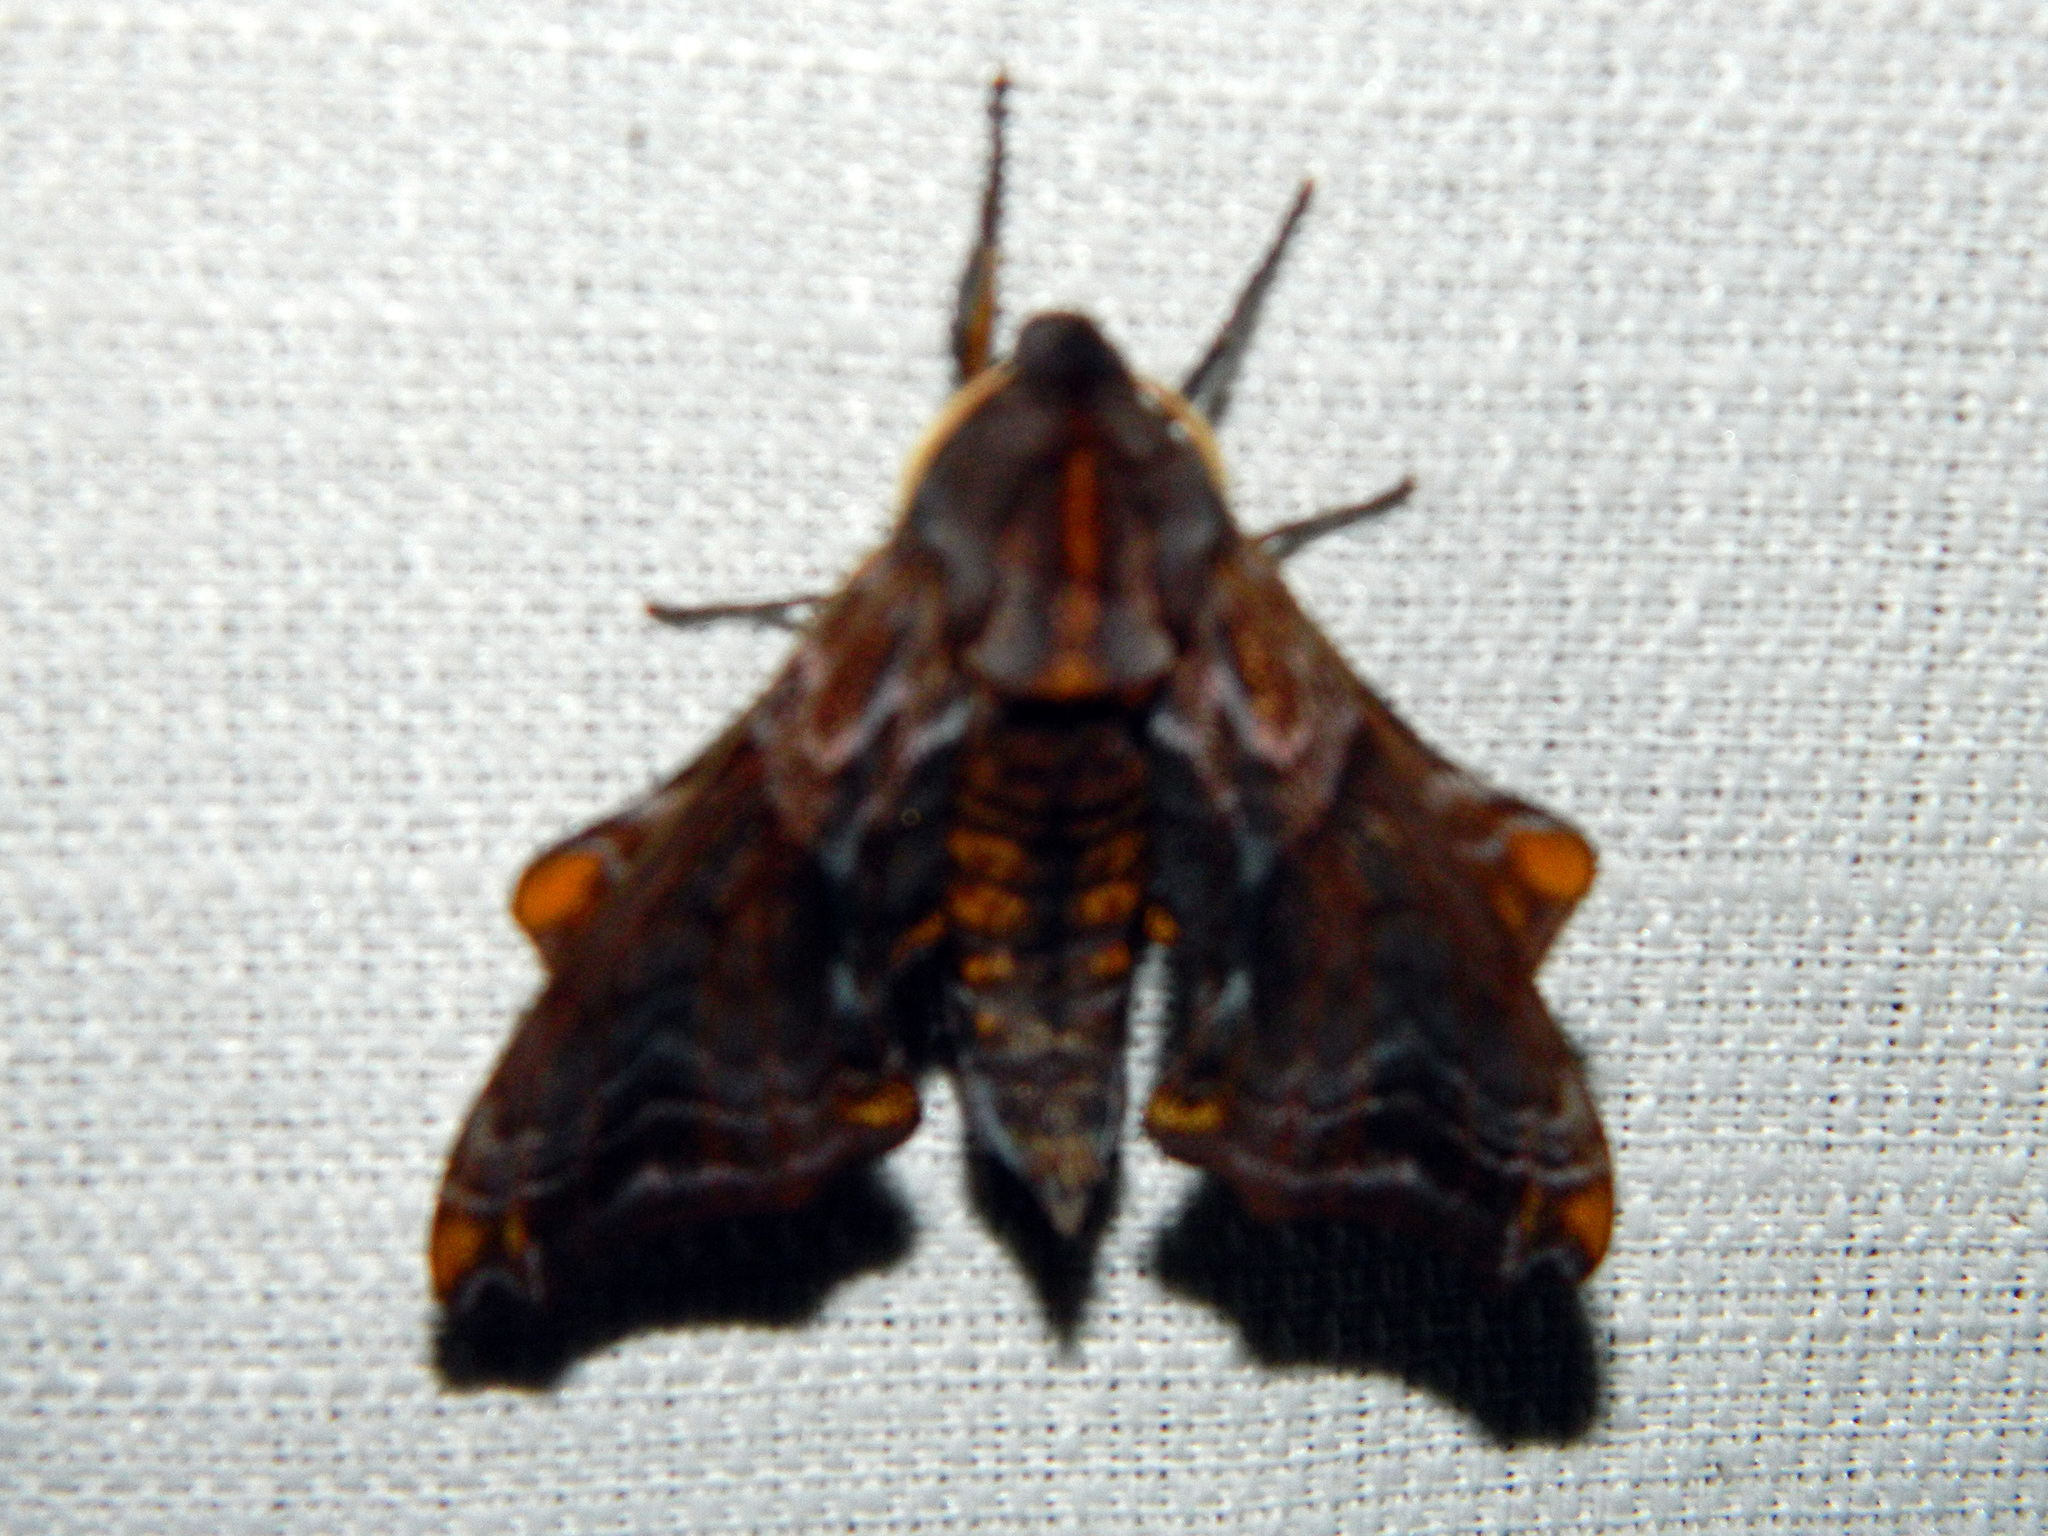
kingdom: Animalia
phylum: Arthropoda
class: Insecta
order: Lepidoptera
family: Sphingidae
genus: Paonias
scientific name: Paonias myops
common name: Small-eyed sphinx
